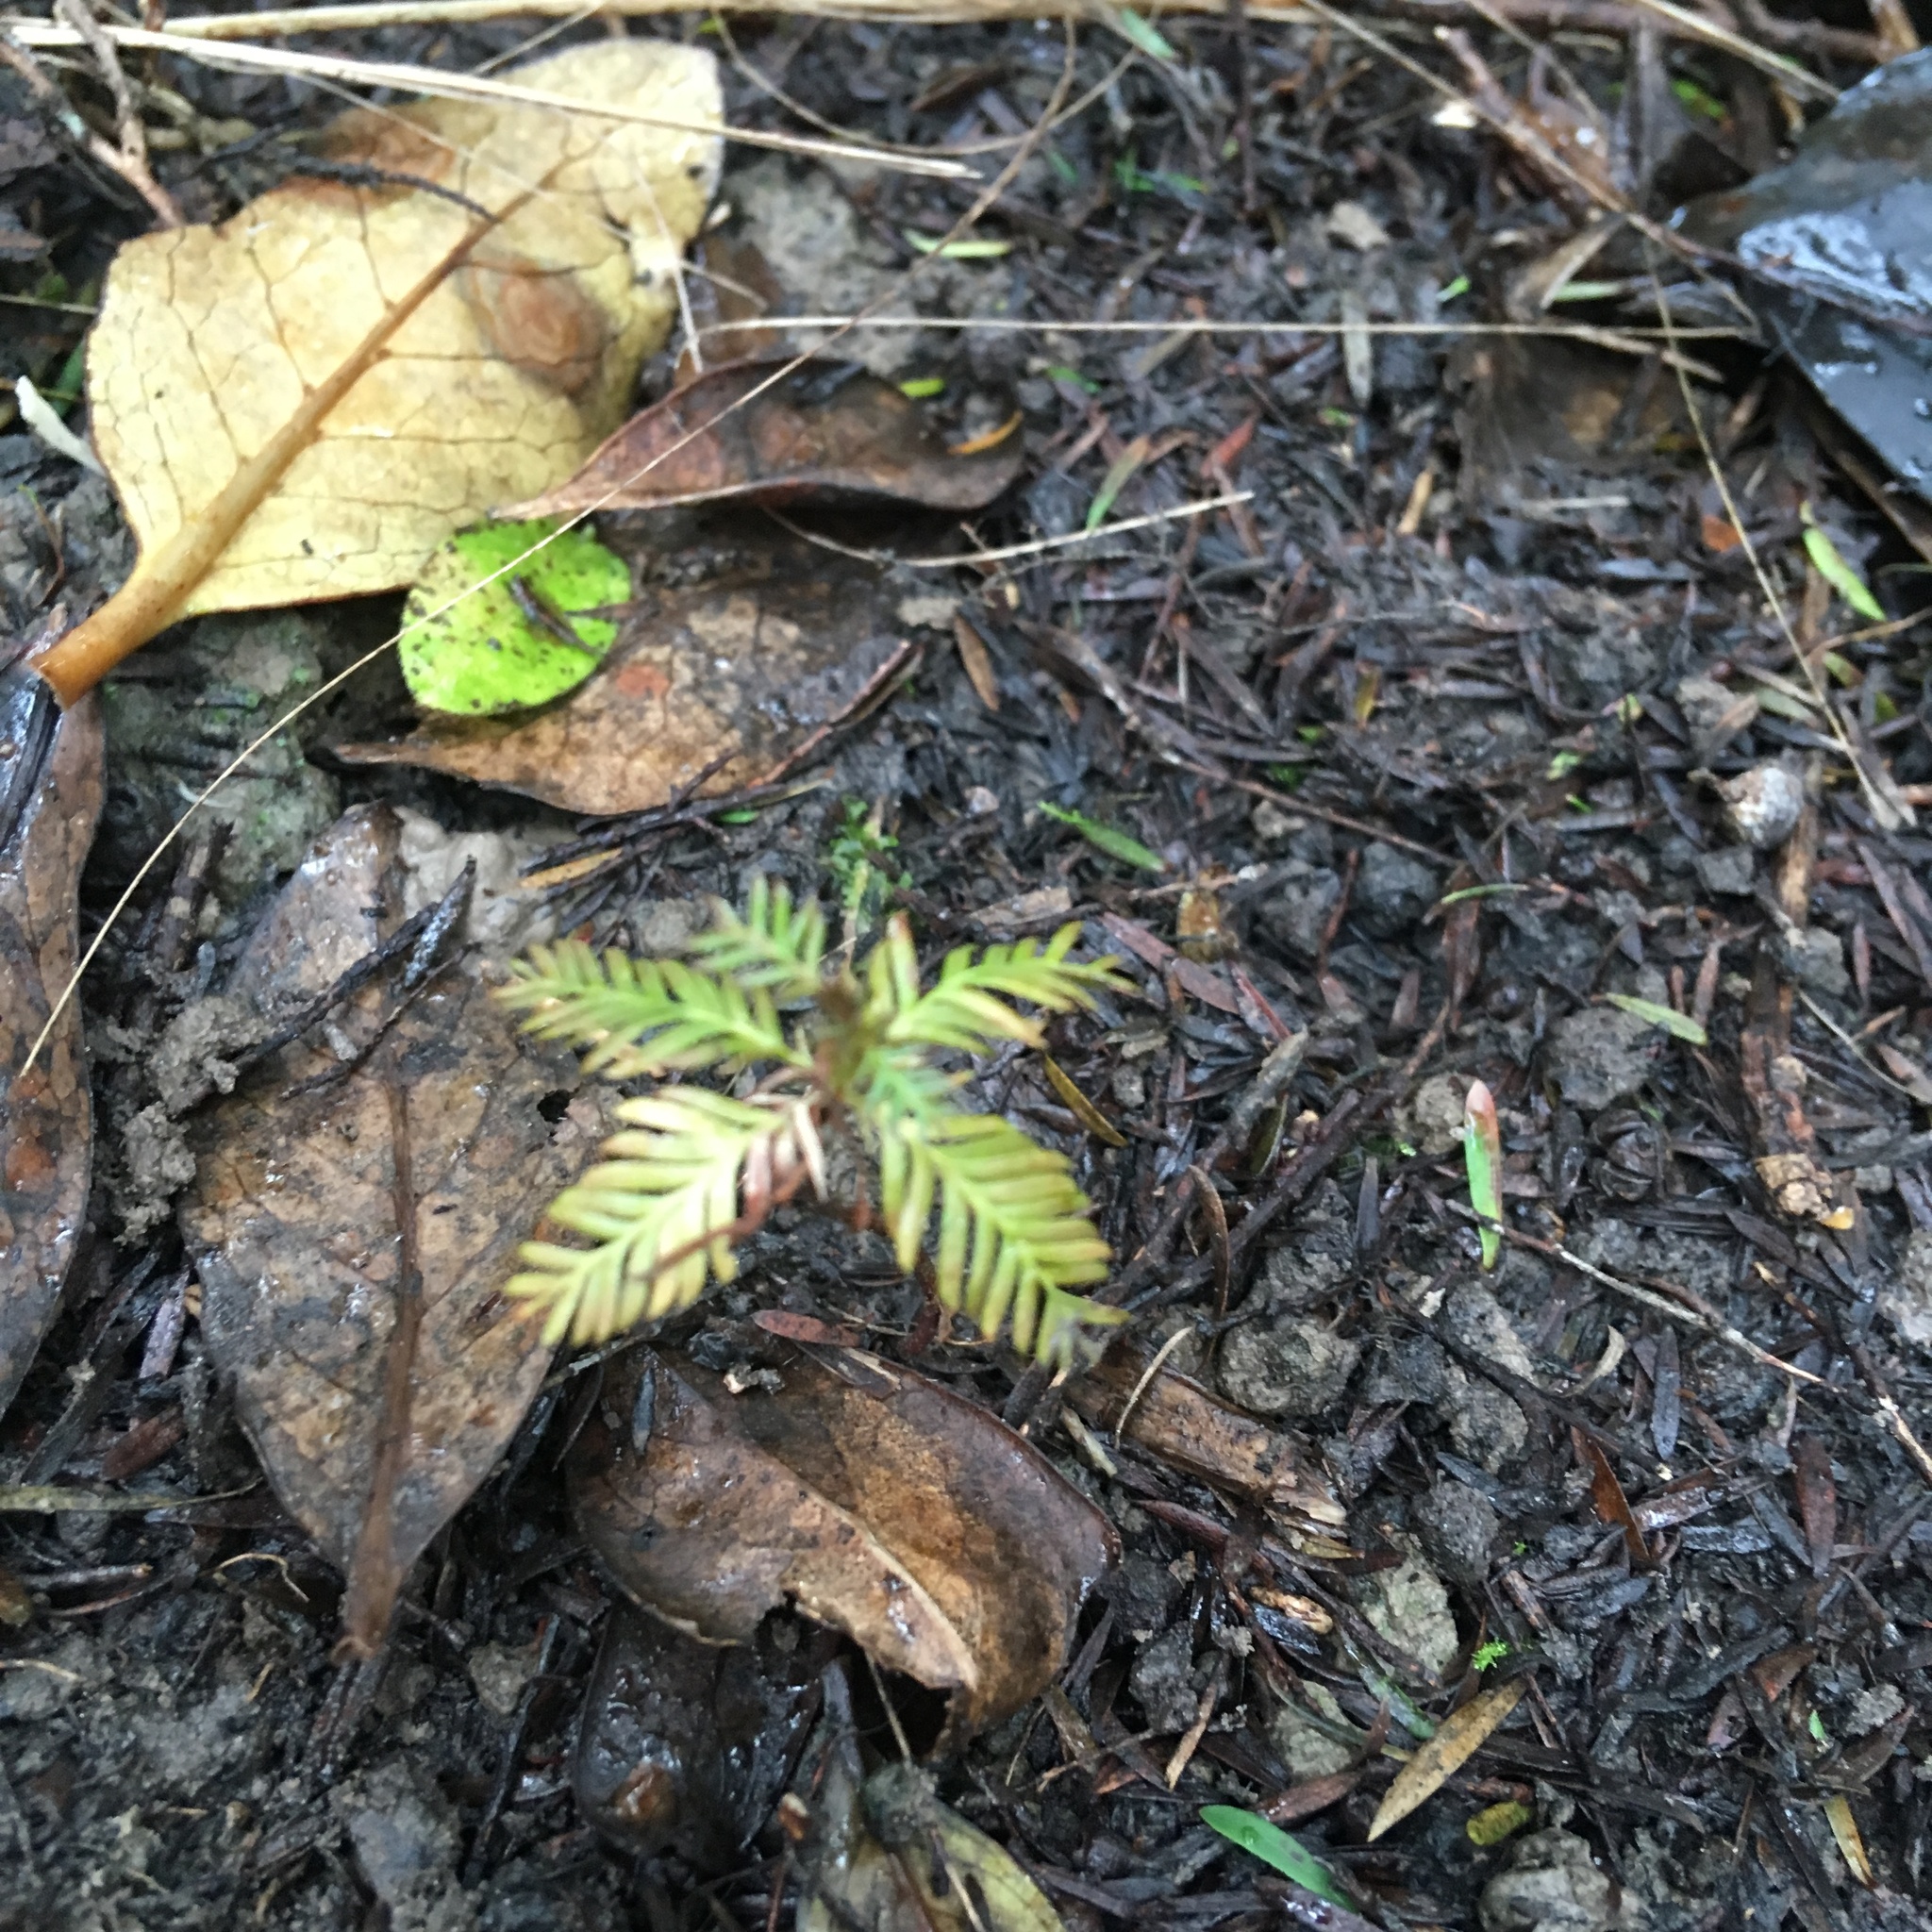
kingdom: Plantae
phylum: Tracheophyta
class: Pinopsida
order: Pinales
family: Podocarpaceae
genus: Dacrycarpus
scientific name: Dacrycarpus dacrydioides
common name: White pine
